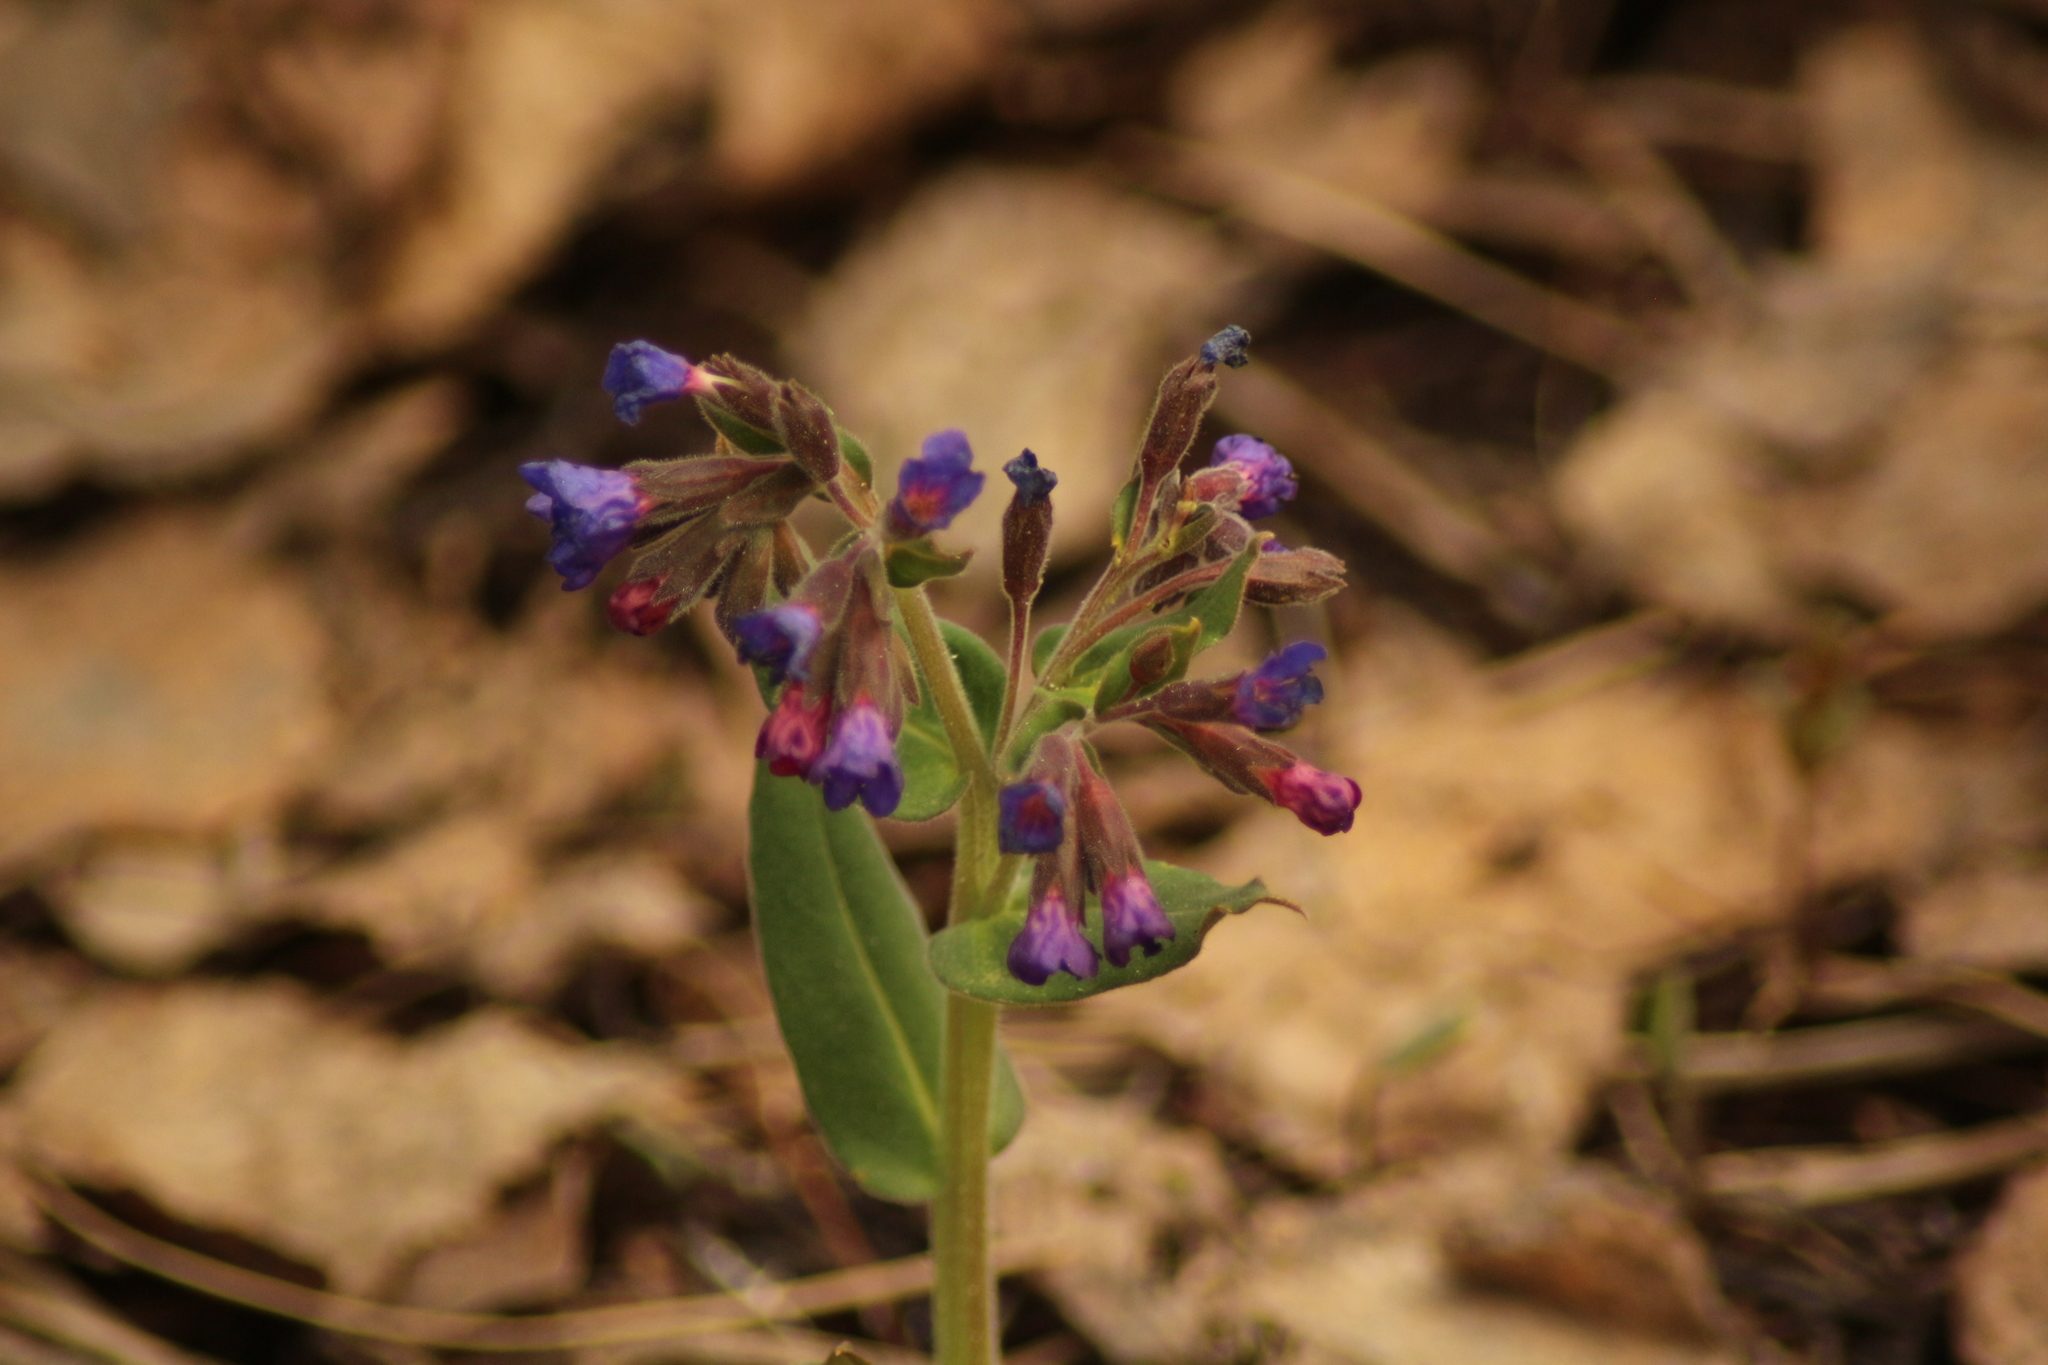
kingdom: Plantae
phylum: Tracheophyta
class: Magnoliopsida
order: Boraginales
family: Boraginaceae
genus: Pulmonaria
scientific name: Pulmonaria mollis
